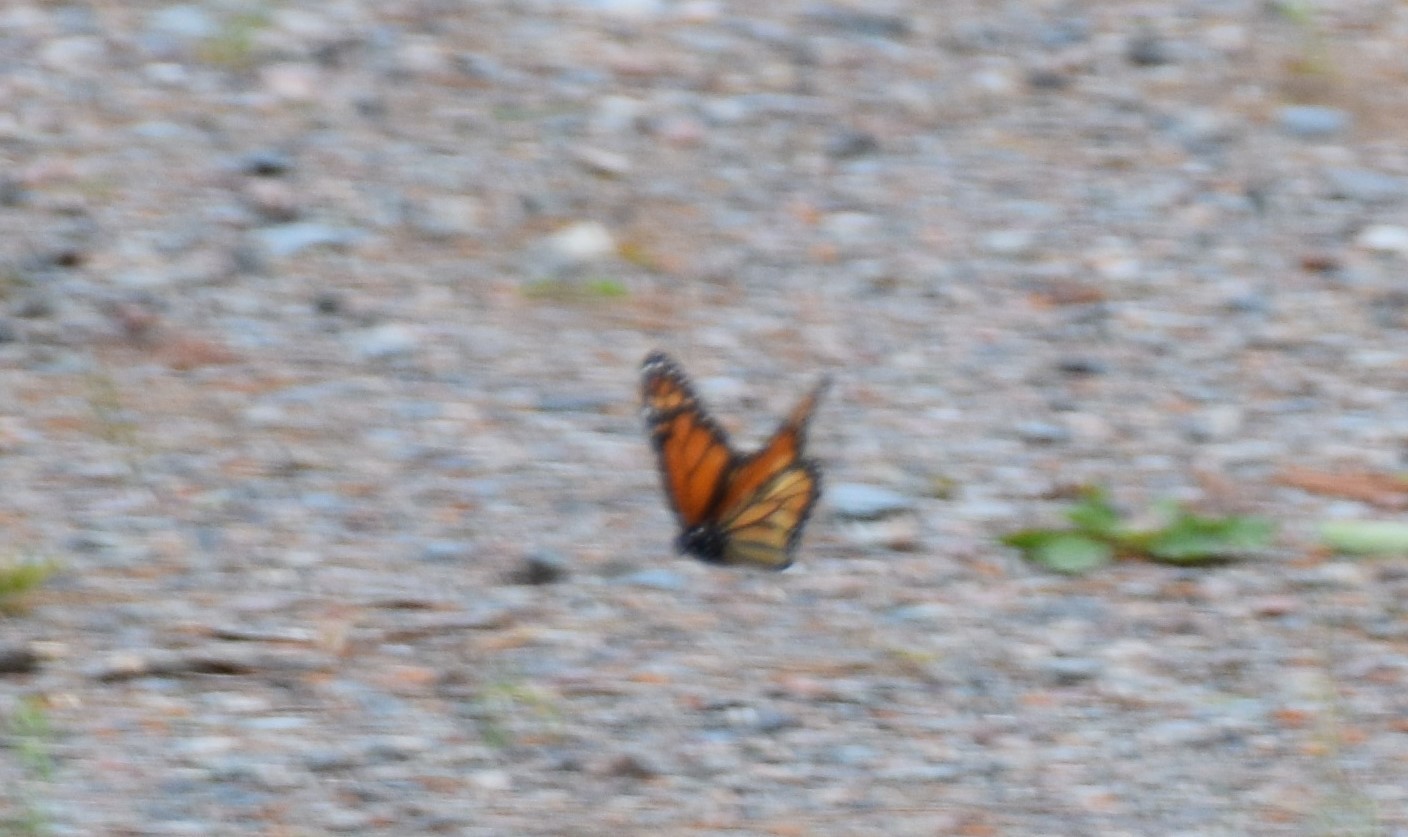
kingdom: Animalia
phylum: Arthropoda
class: Insecta
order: Lepidoptera
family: Nymphalidae
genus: Danaus
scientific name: Danaus plexippus
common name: Monarch
